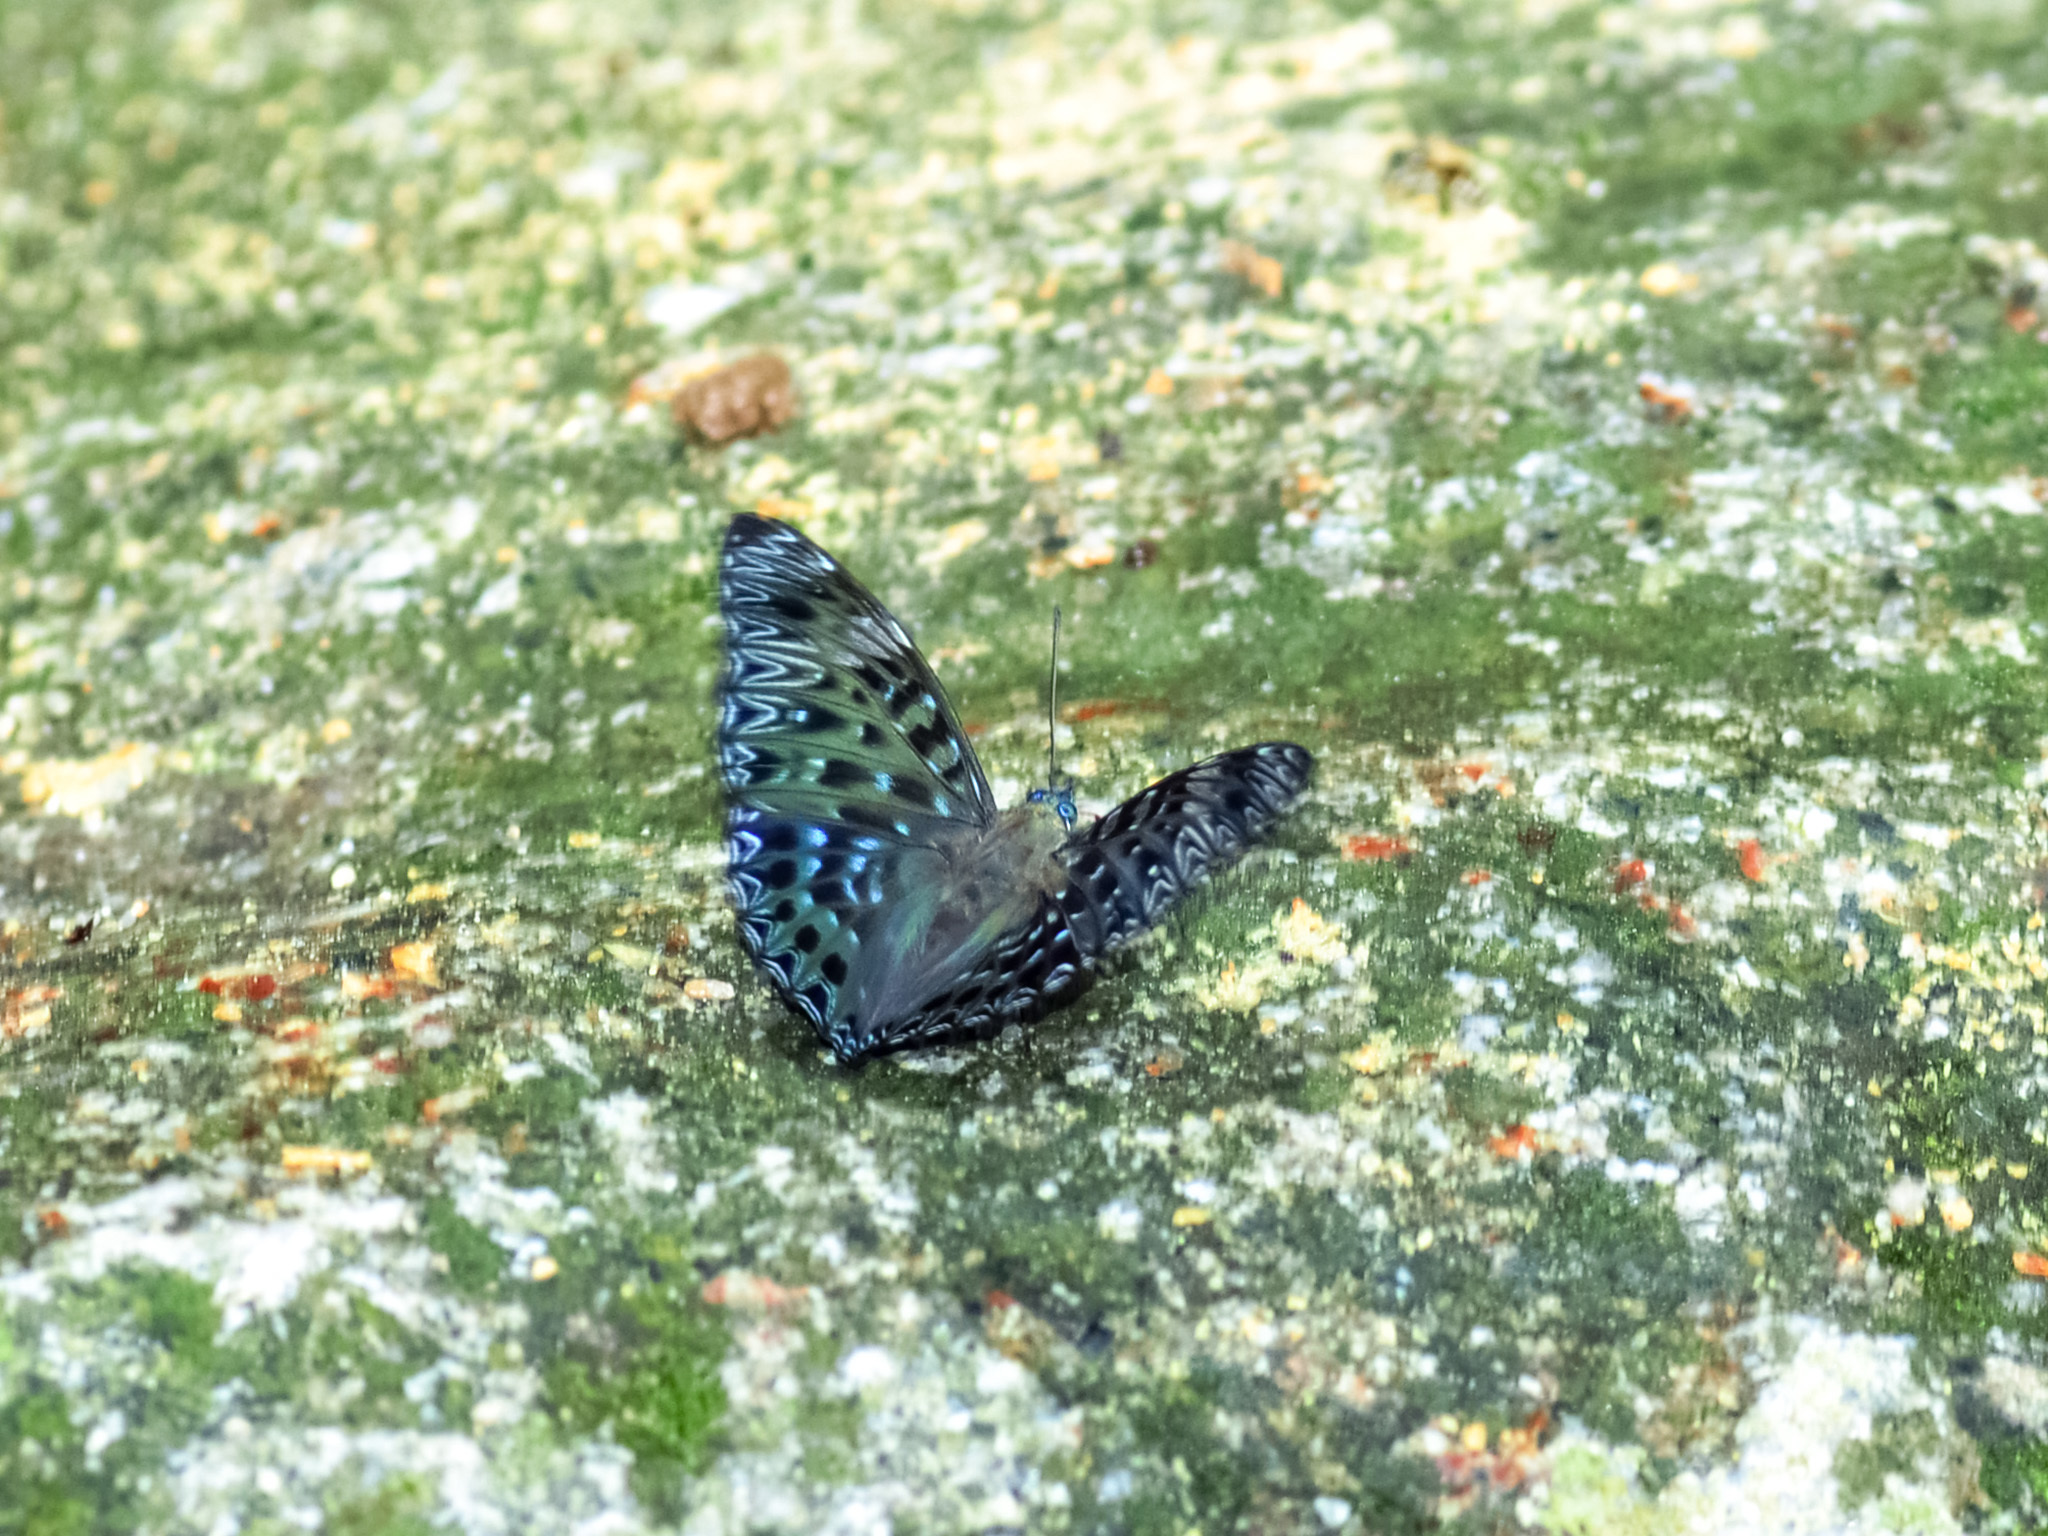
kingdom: Animalia
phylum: Arthropoda
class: Insecta
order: Lepidoptera
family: Nymphalidae
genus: Dichorragia
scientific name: Dichorragia nesimachus
